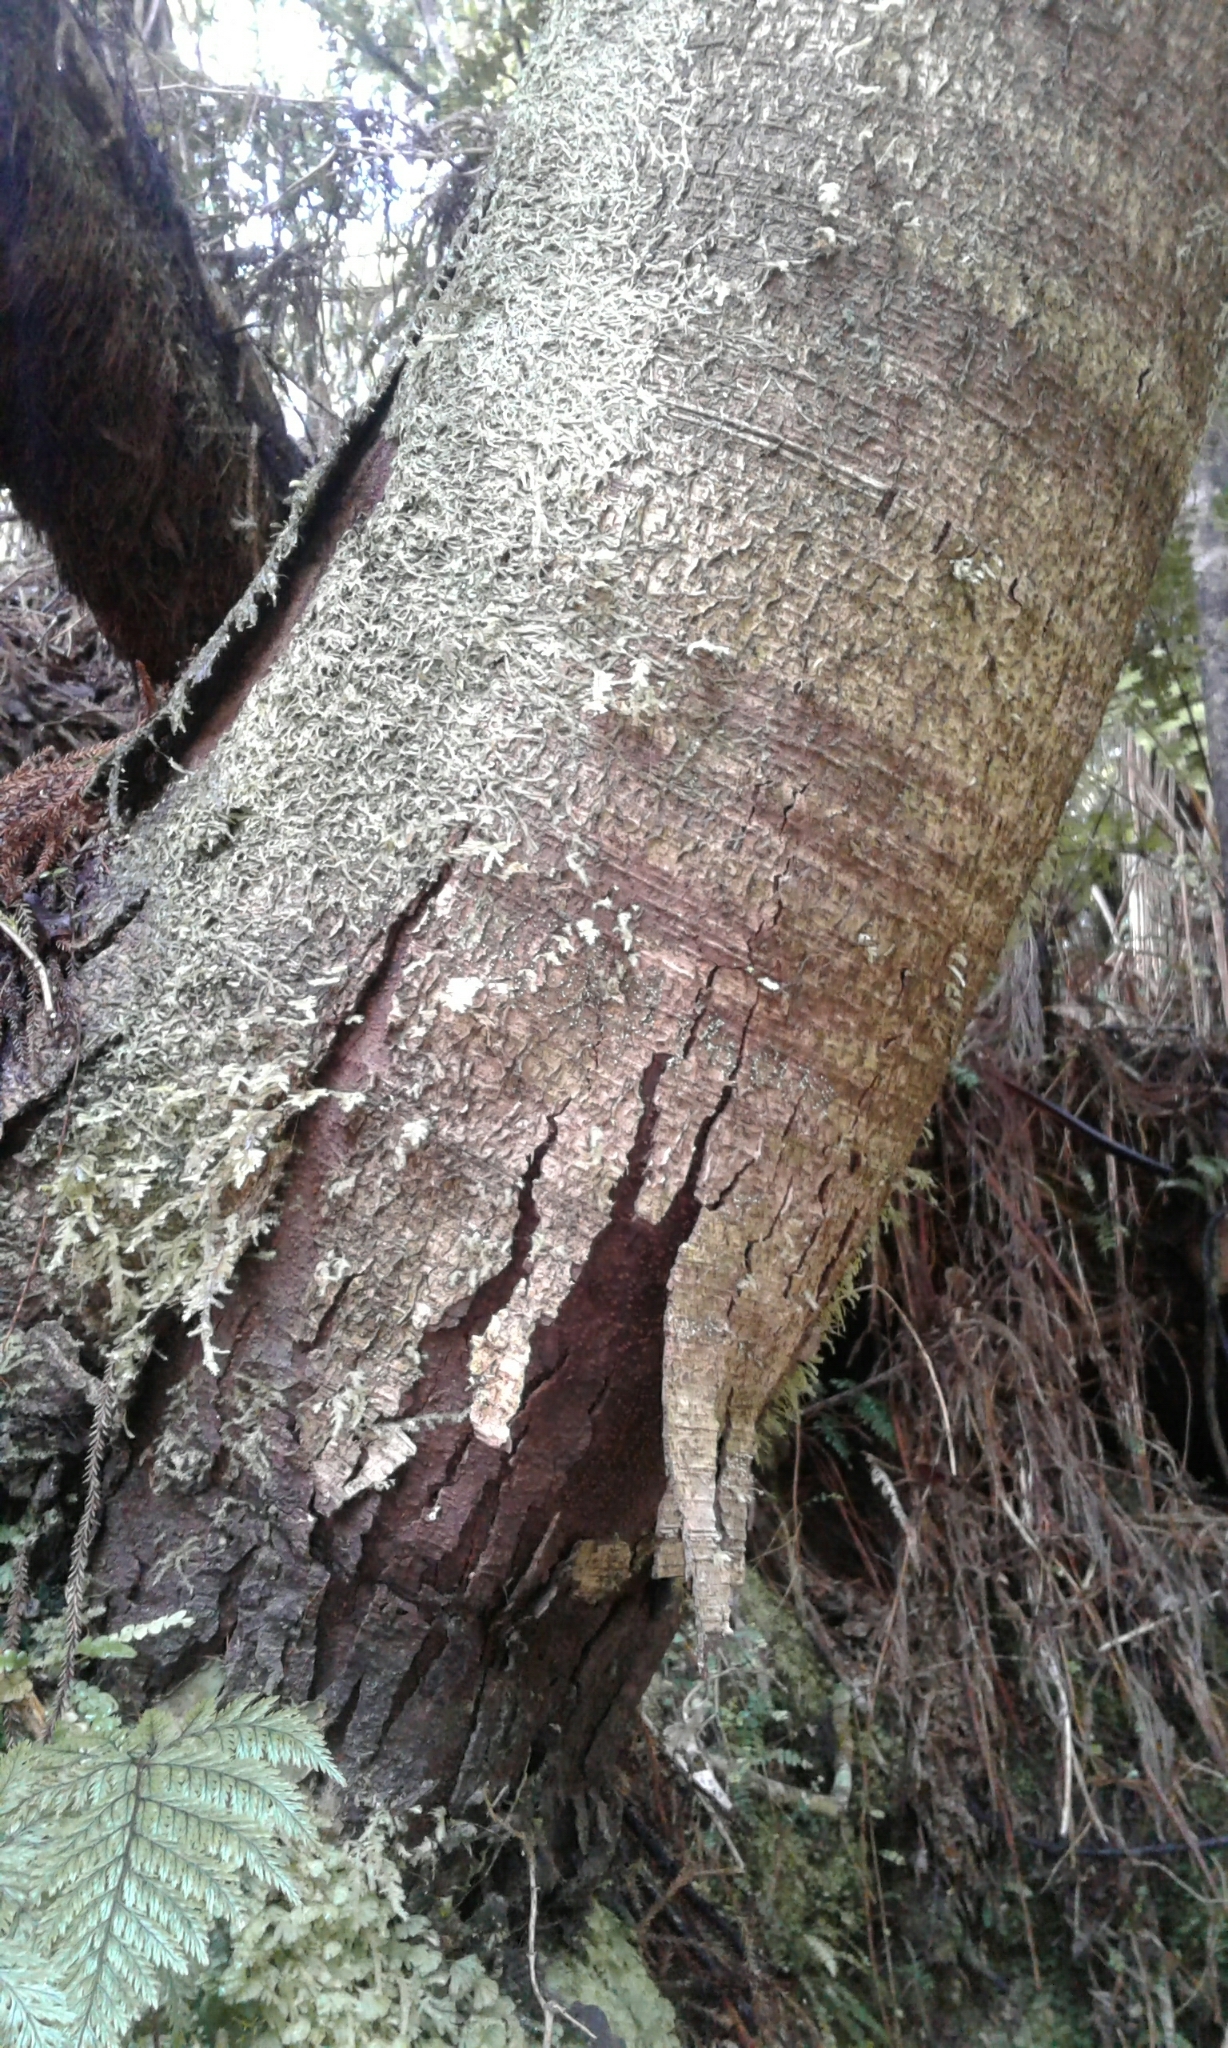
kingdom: Plantae
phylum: Tracheophyta
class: Pinopsida
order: Pinales
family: Podocarpaceae
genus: Dacrydium
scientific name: Dacrydium cupressinum
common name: Red pine
